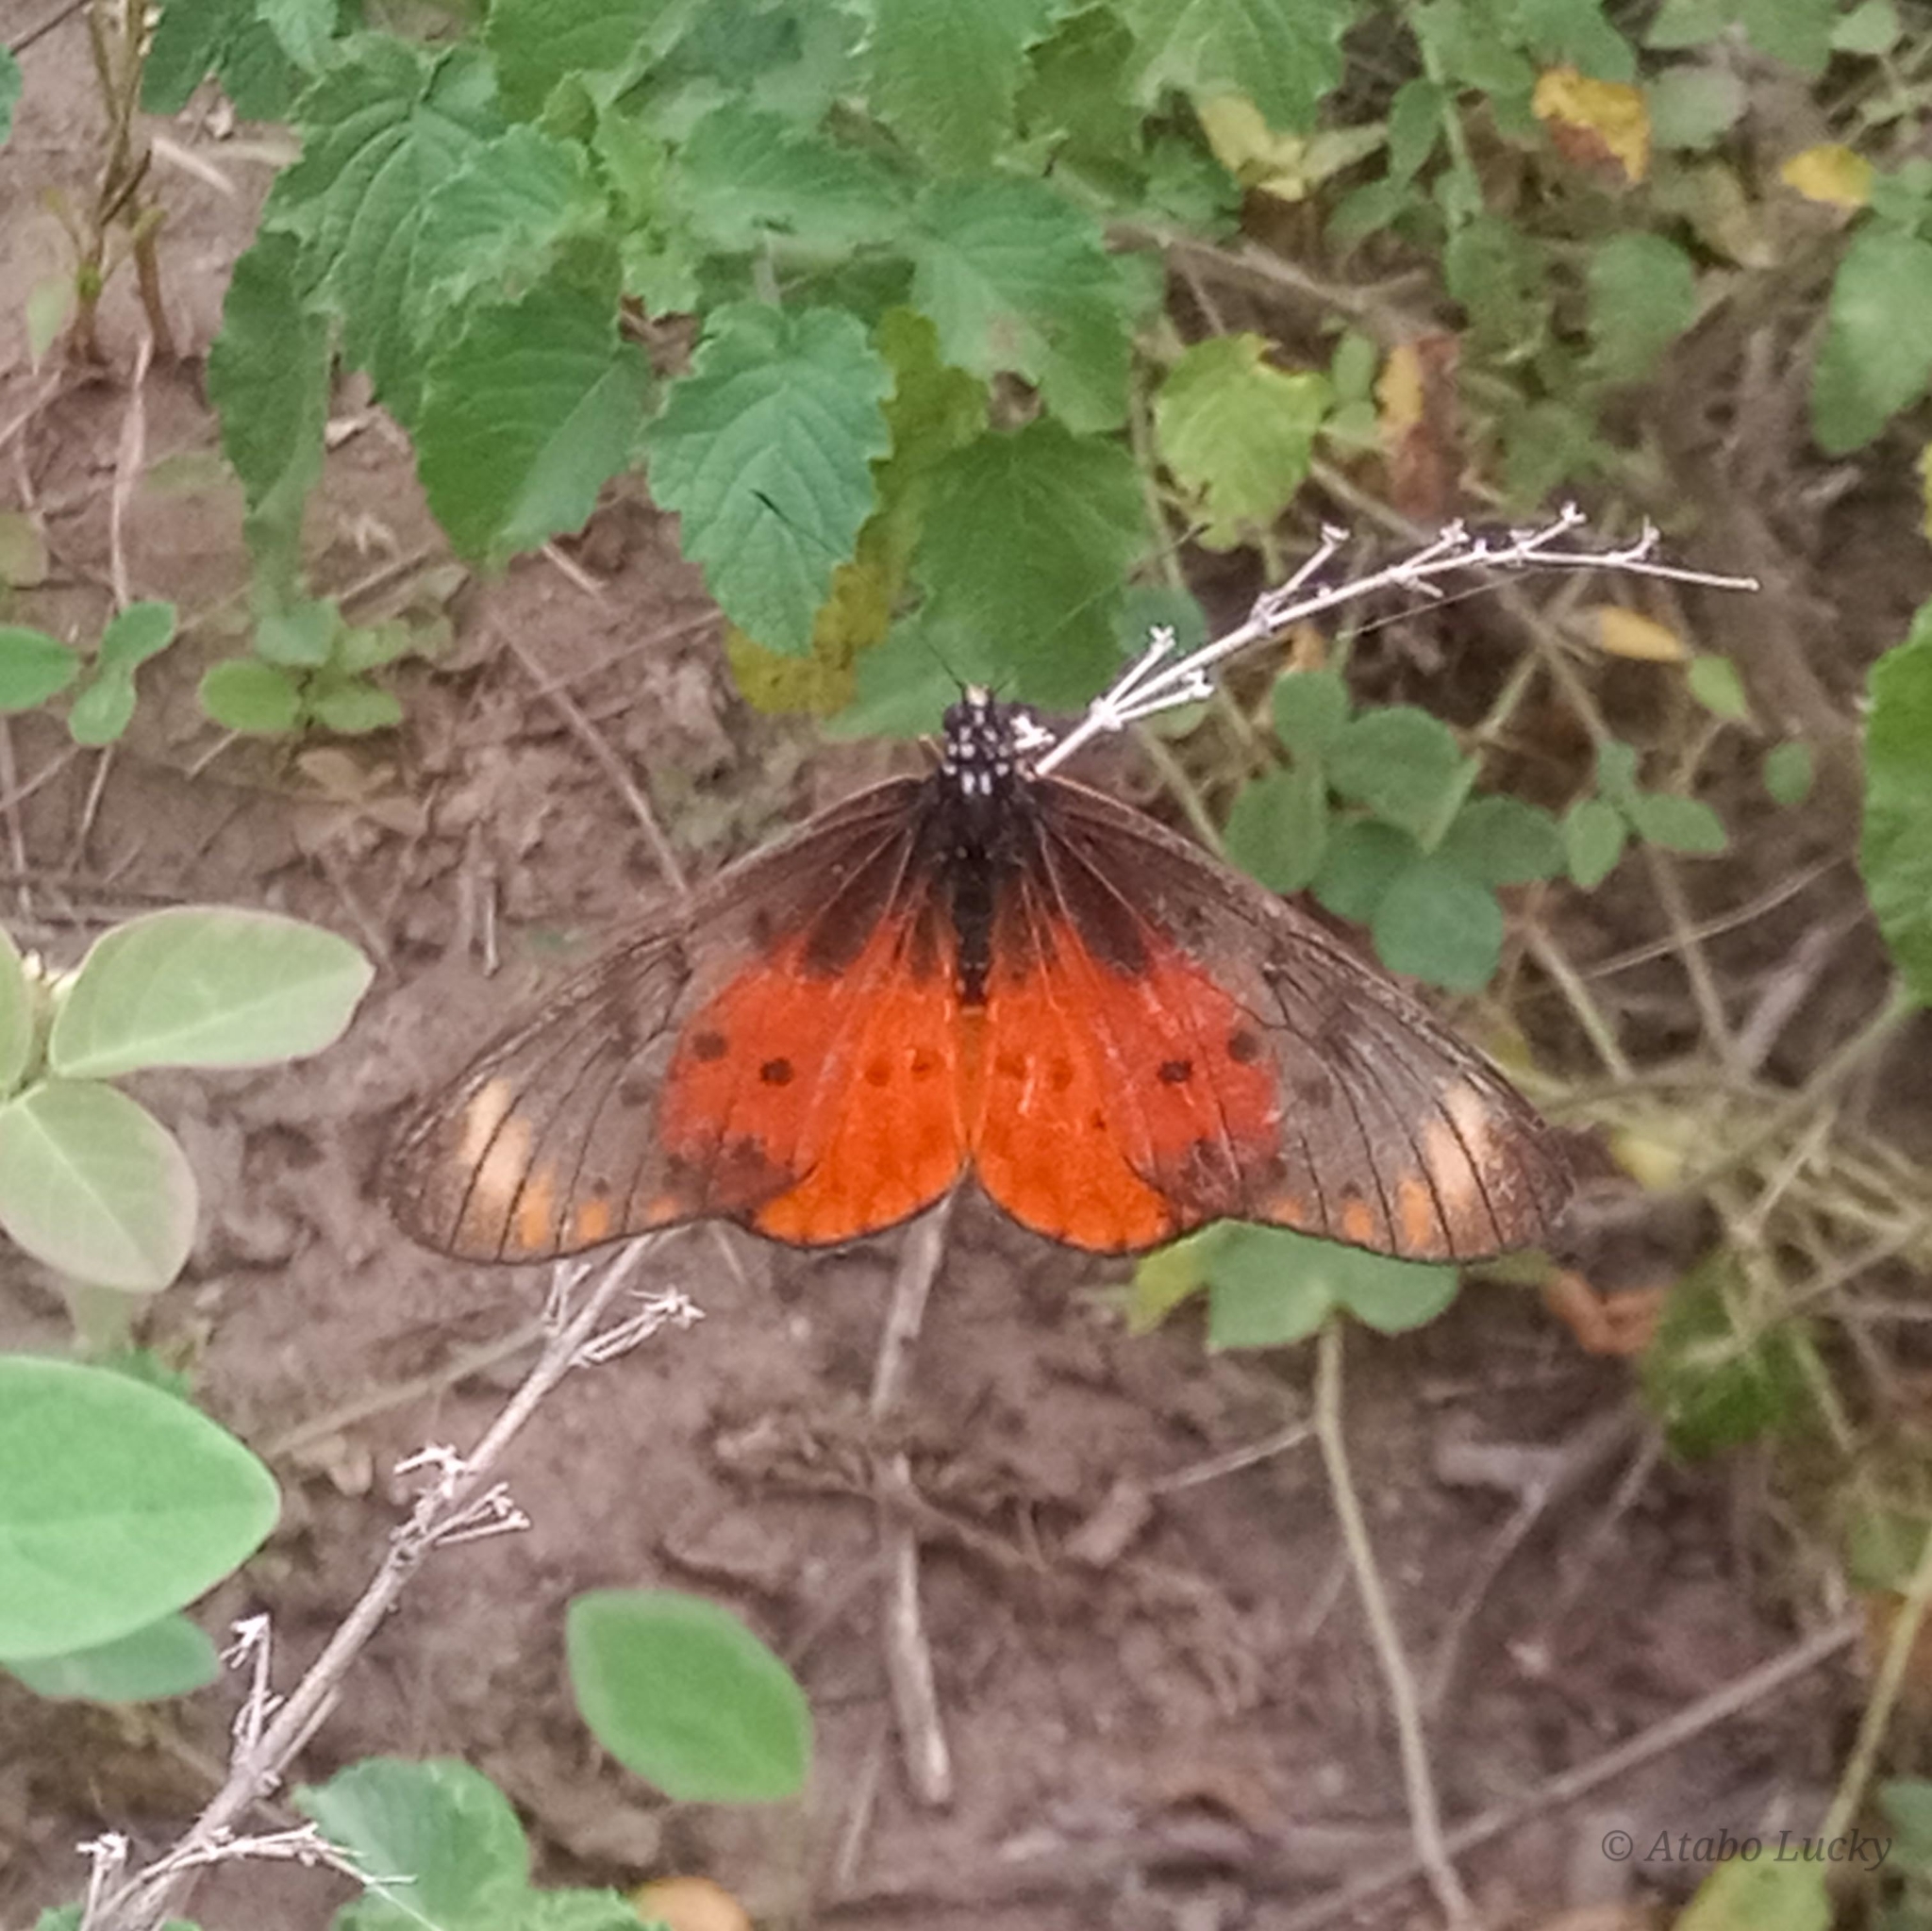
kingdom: Animalia
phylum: Arthropoda
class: Insecta
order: Lepidoptera
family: Nymphalidae
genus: Stephenia
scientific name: Stephenia
